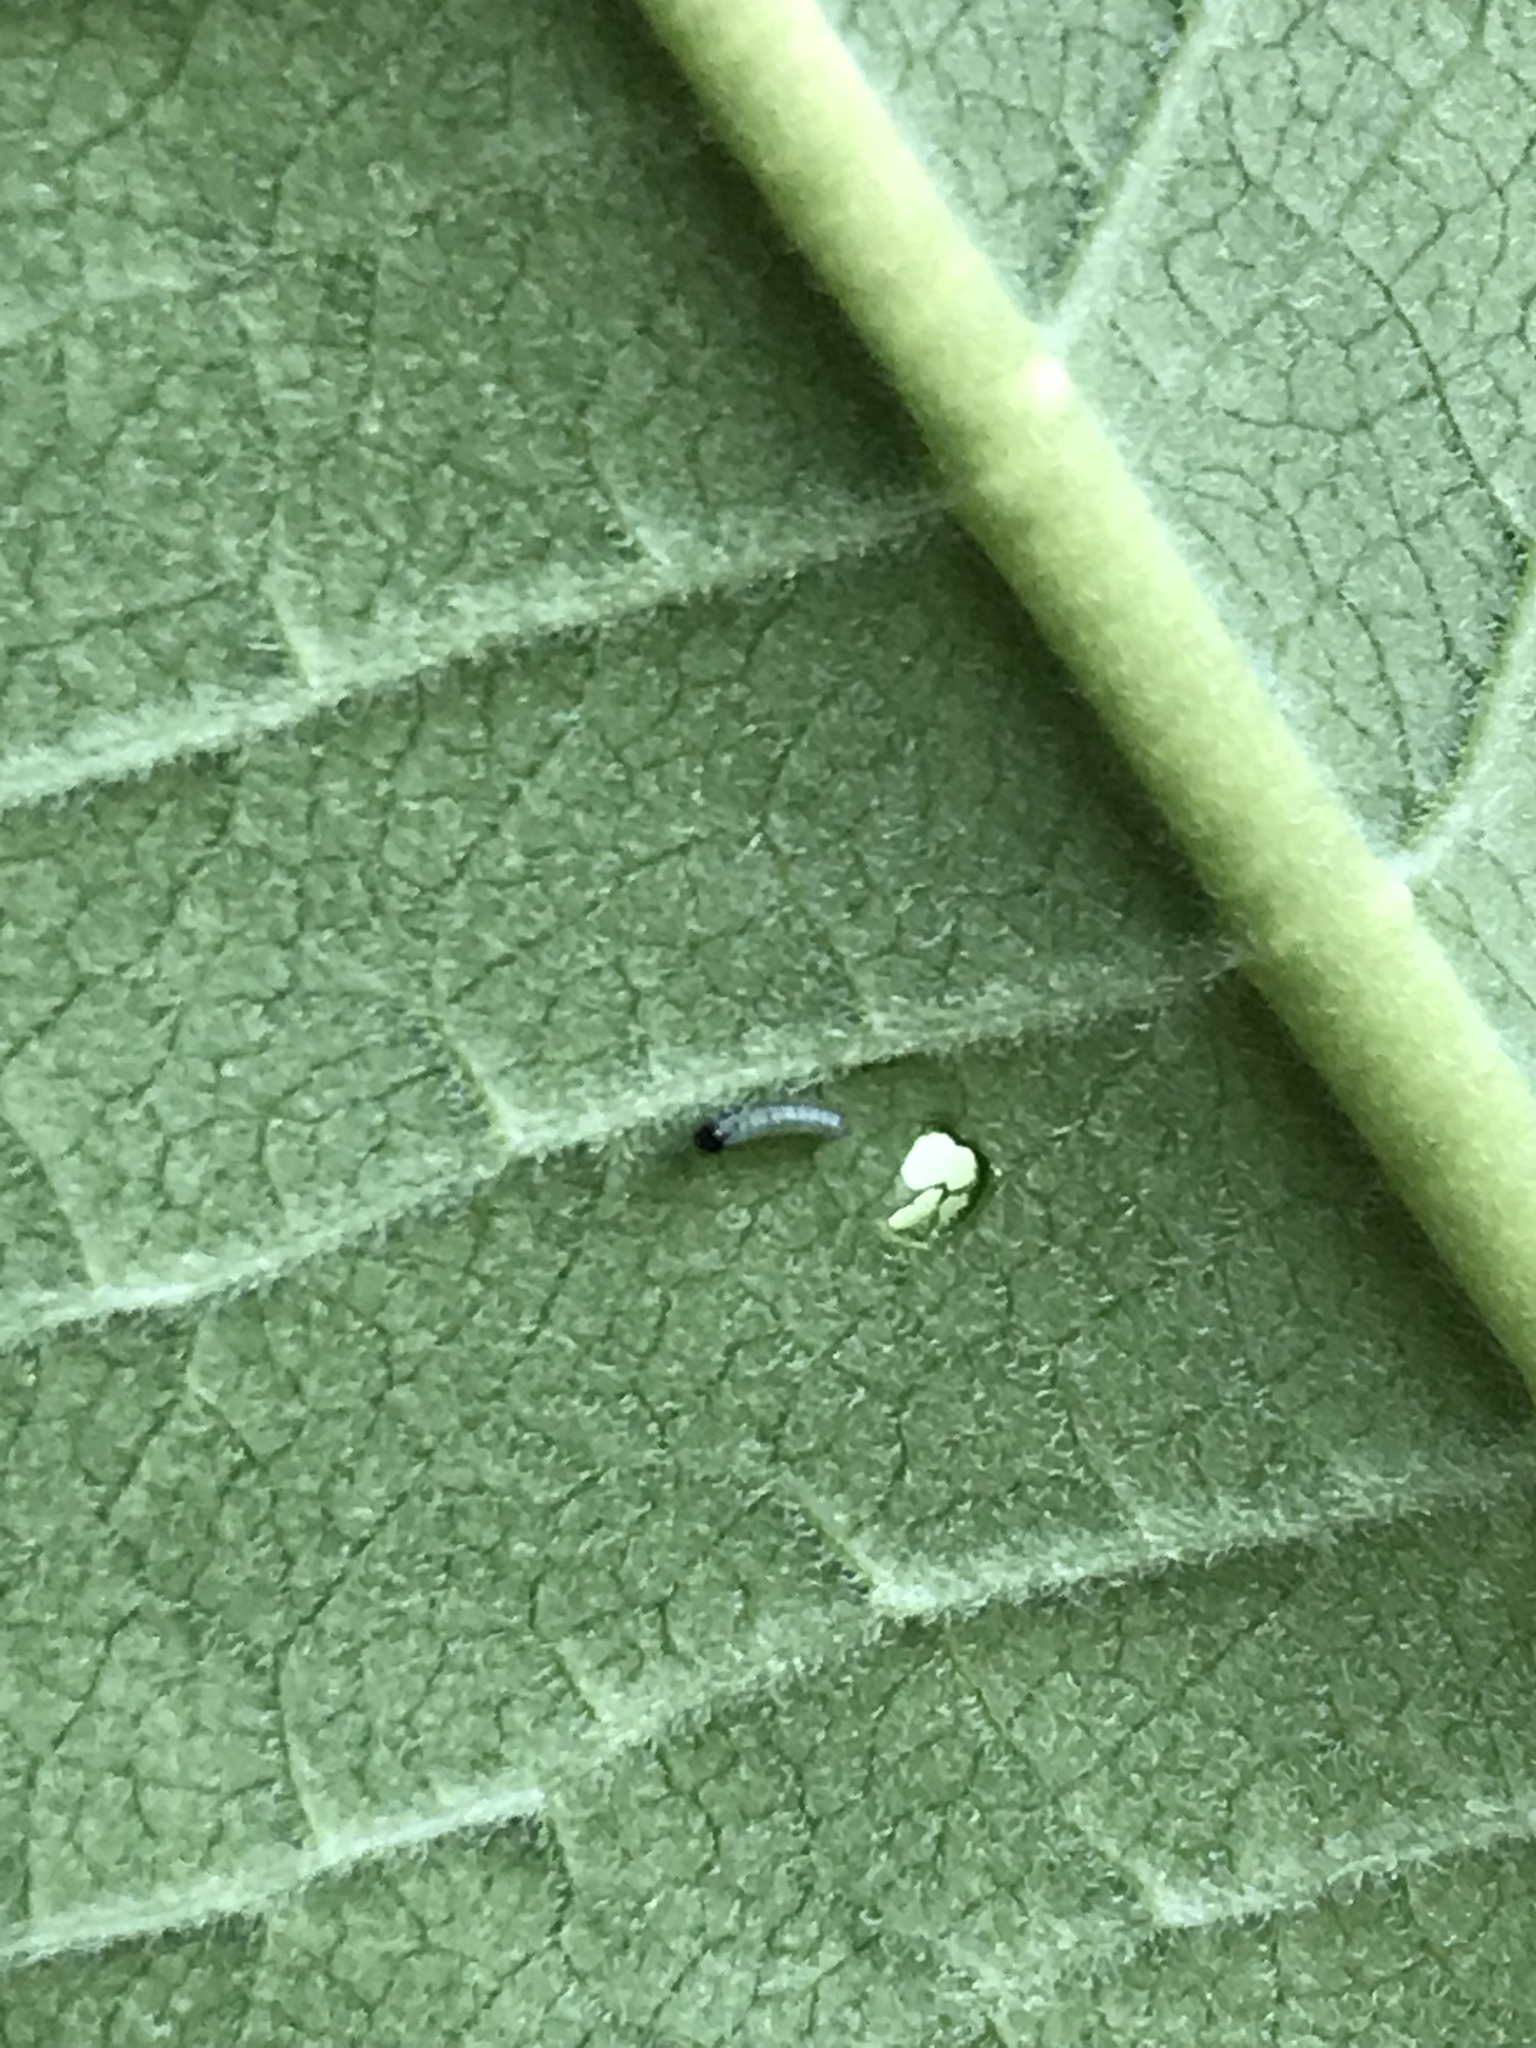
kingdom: Animalia
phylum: Arthropoda
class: Insecta
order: Lepidoptera
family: Nymphalidae
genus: Danaus
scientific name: Danaus plexippus
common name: Monarch
